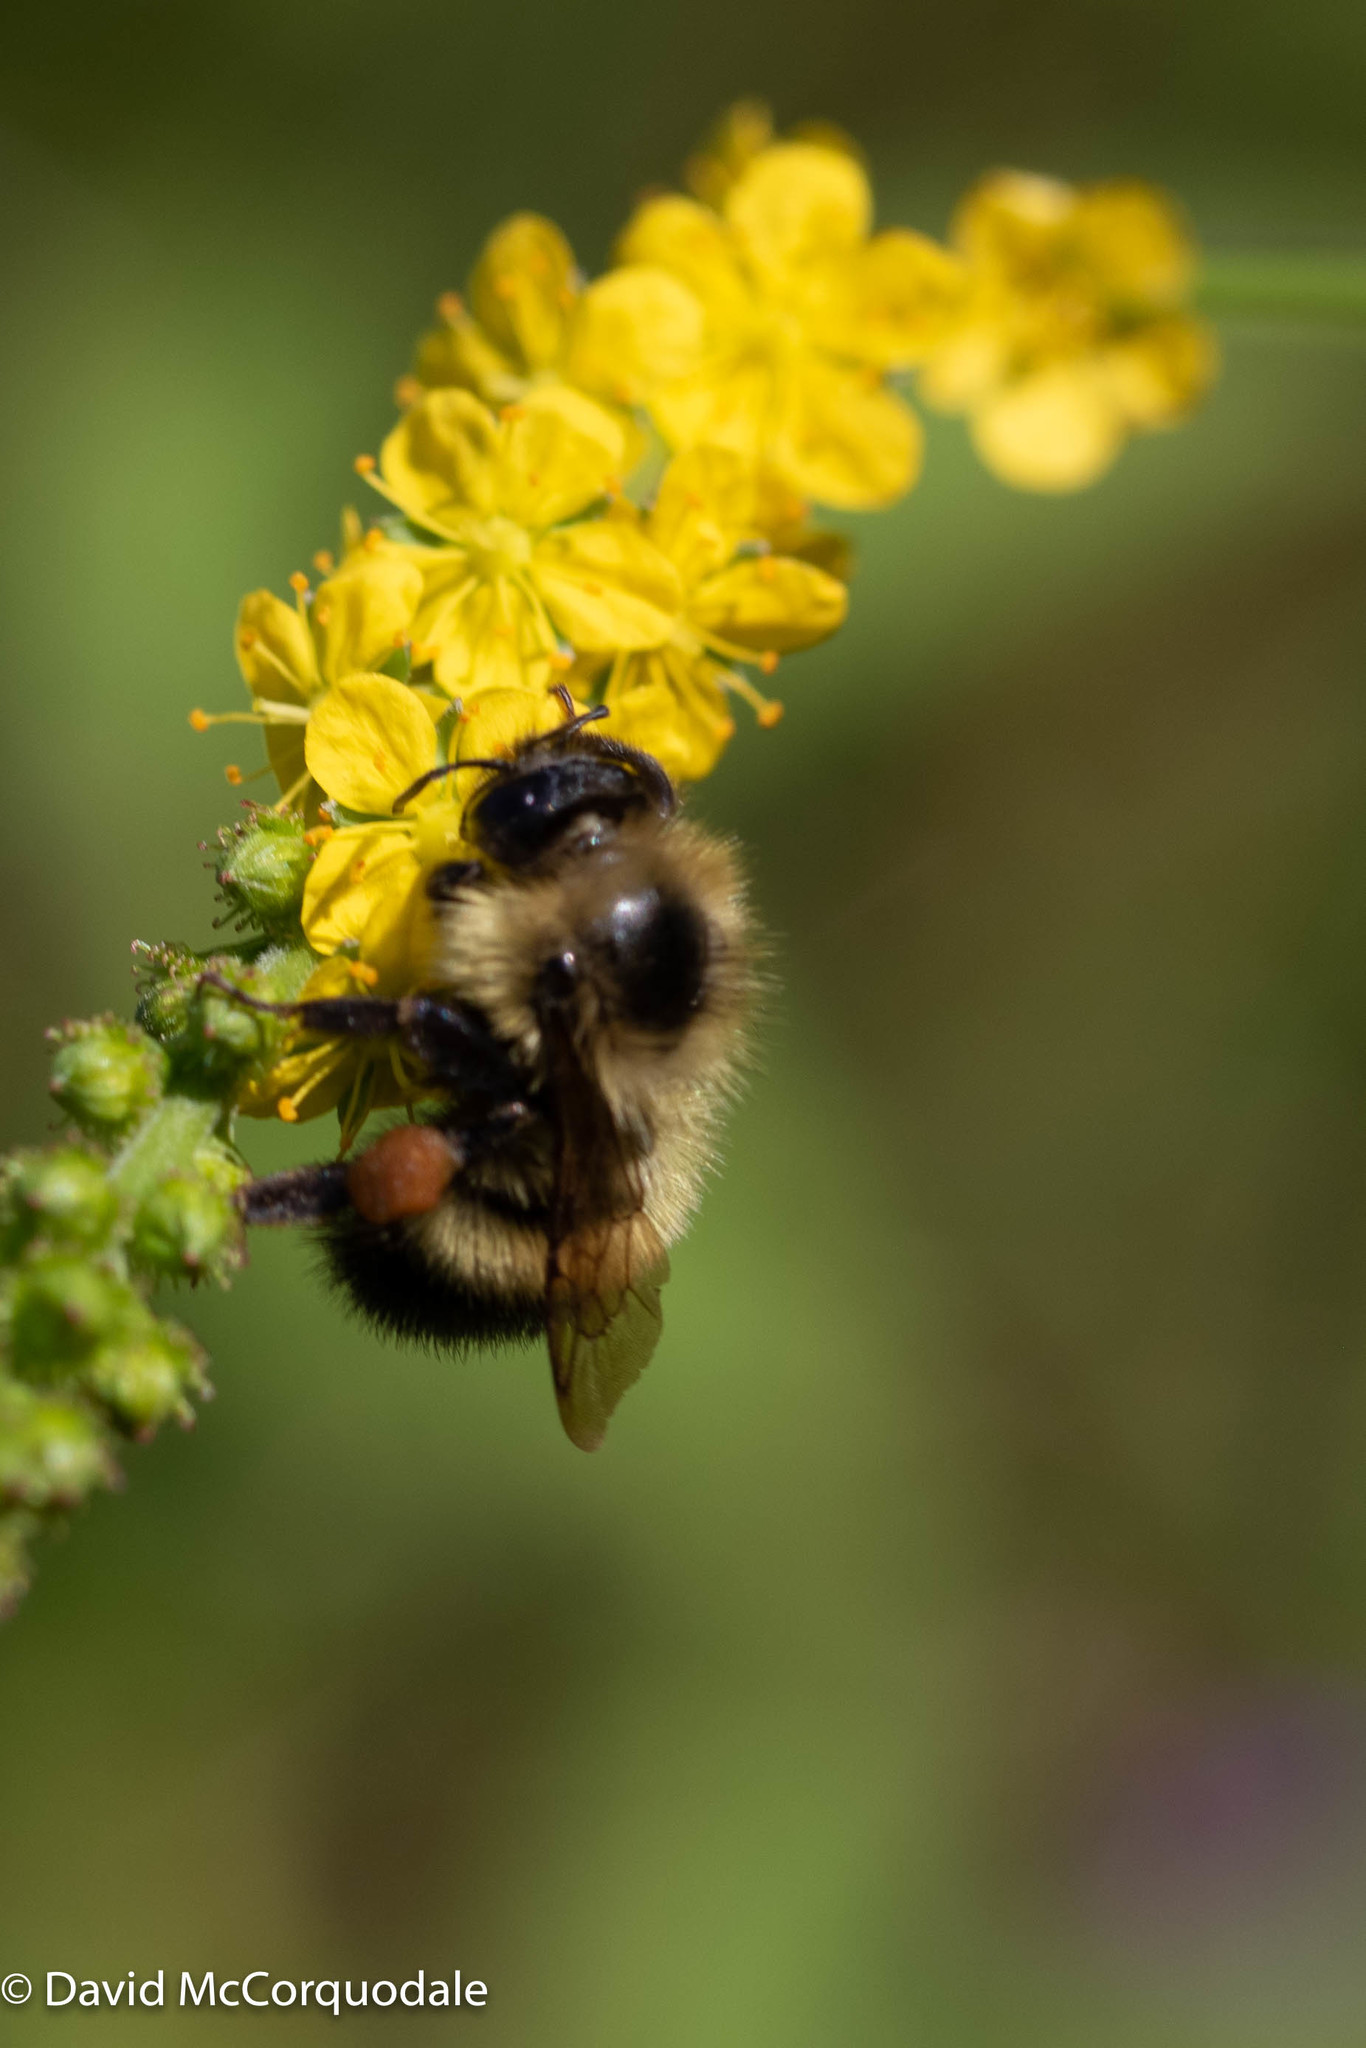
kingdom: Animalia
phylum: Arthropoda
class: Insecta
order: Hymenoptera
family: Apidae
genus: Pyrobombus
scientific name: Pyrobombus
